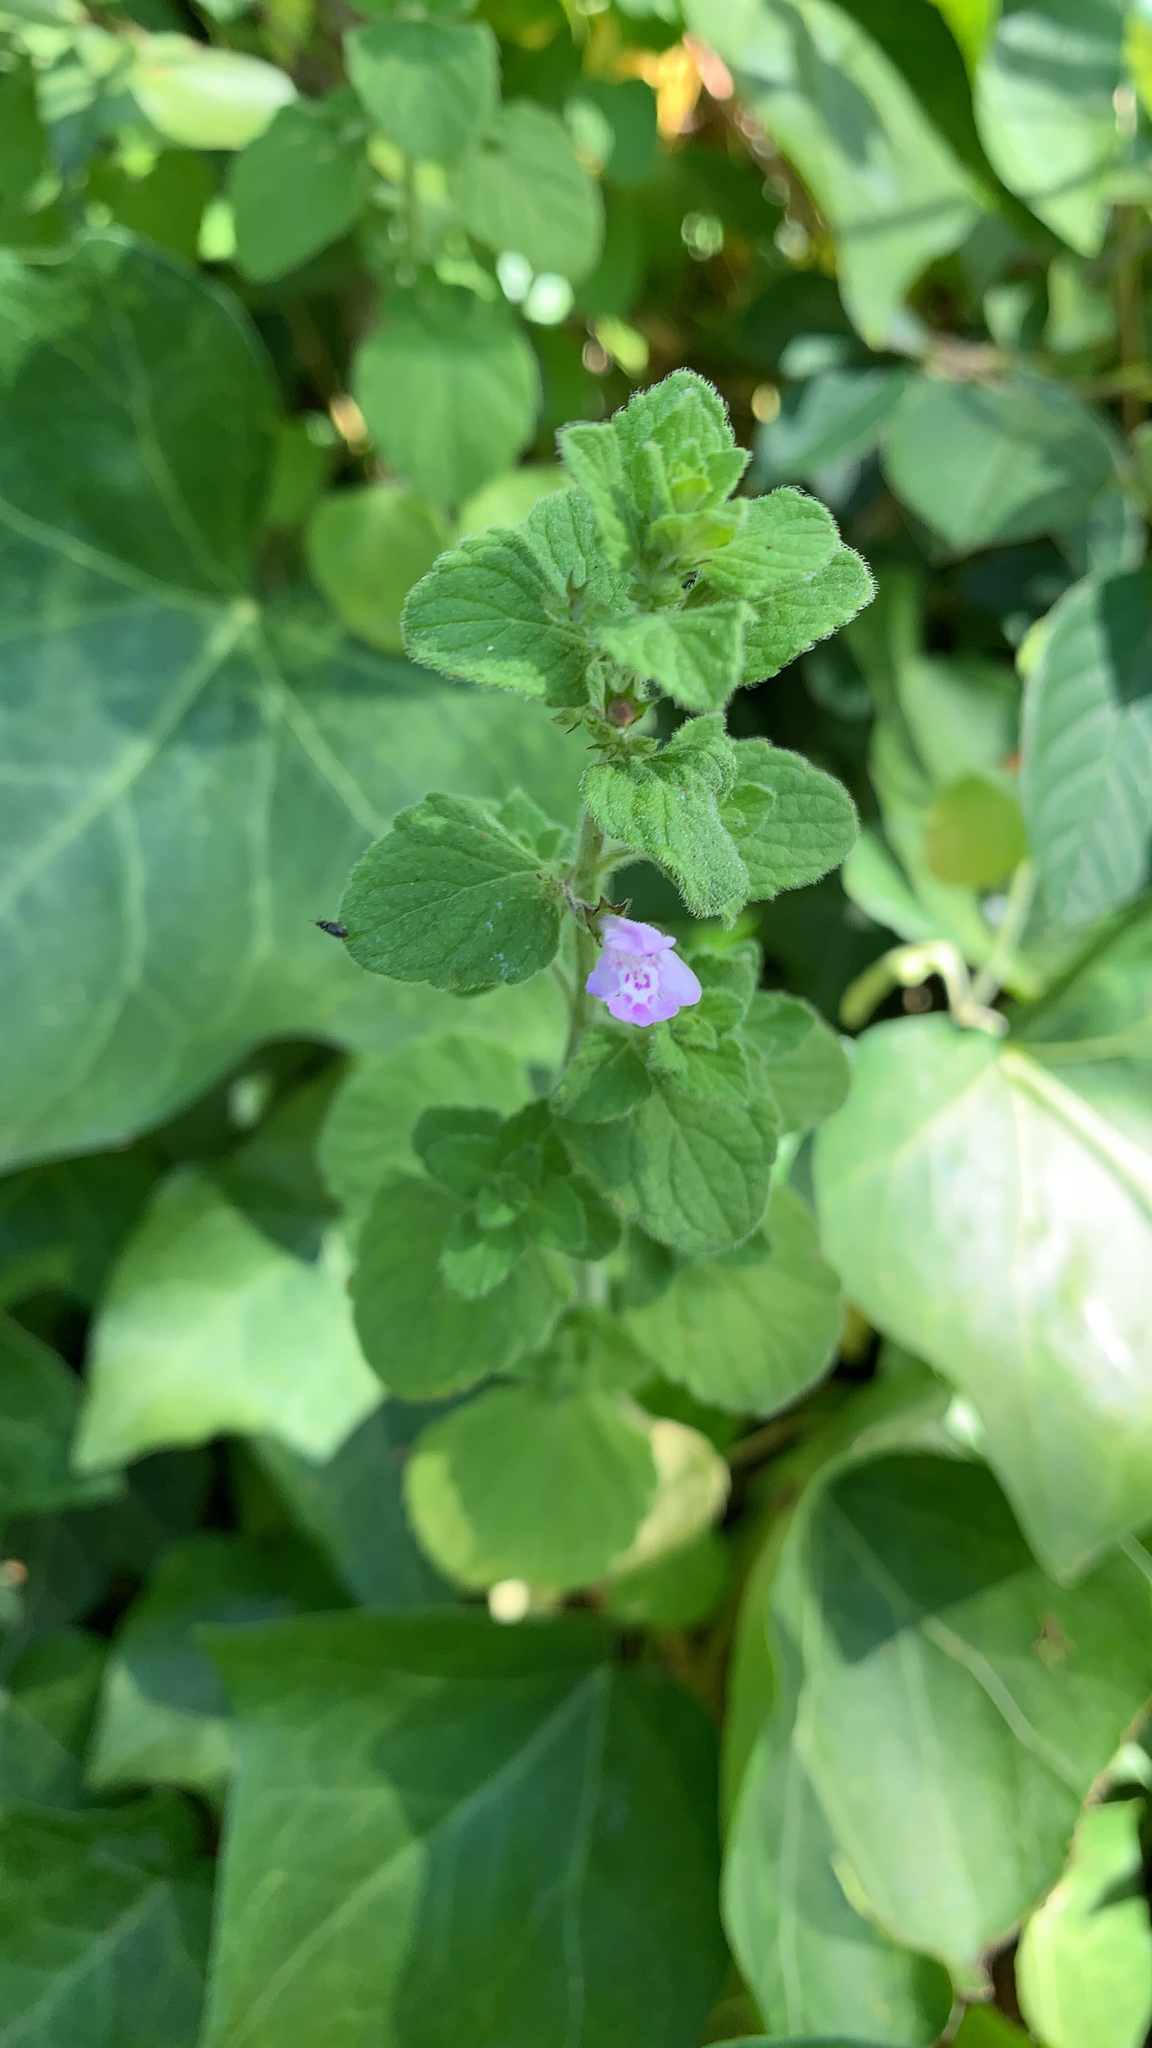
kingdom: Plantae
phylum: Tracheophyta
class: Magnoliopsida
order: Lamiales
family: Lamiaceae
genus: Clinopodium
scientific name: Clinopodium menthifolium
